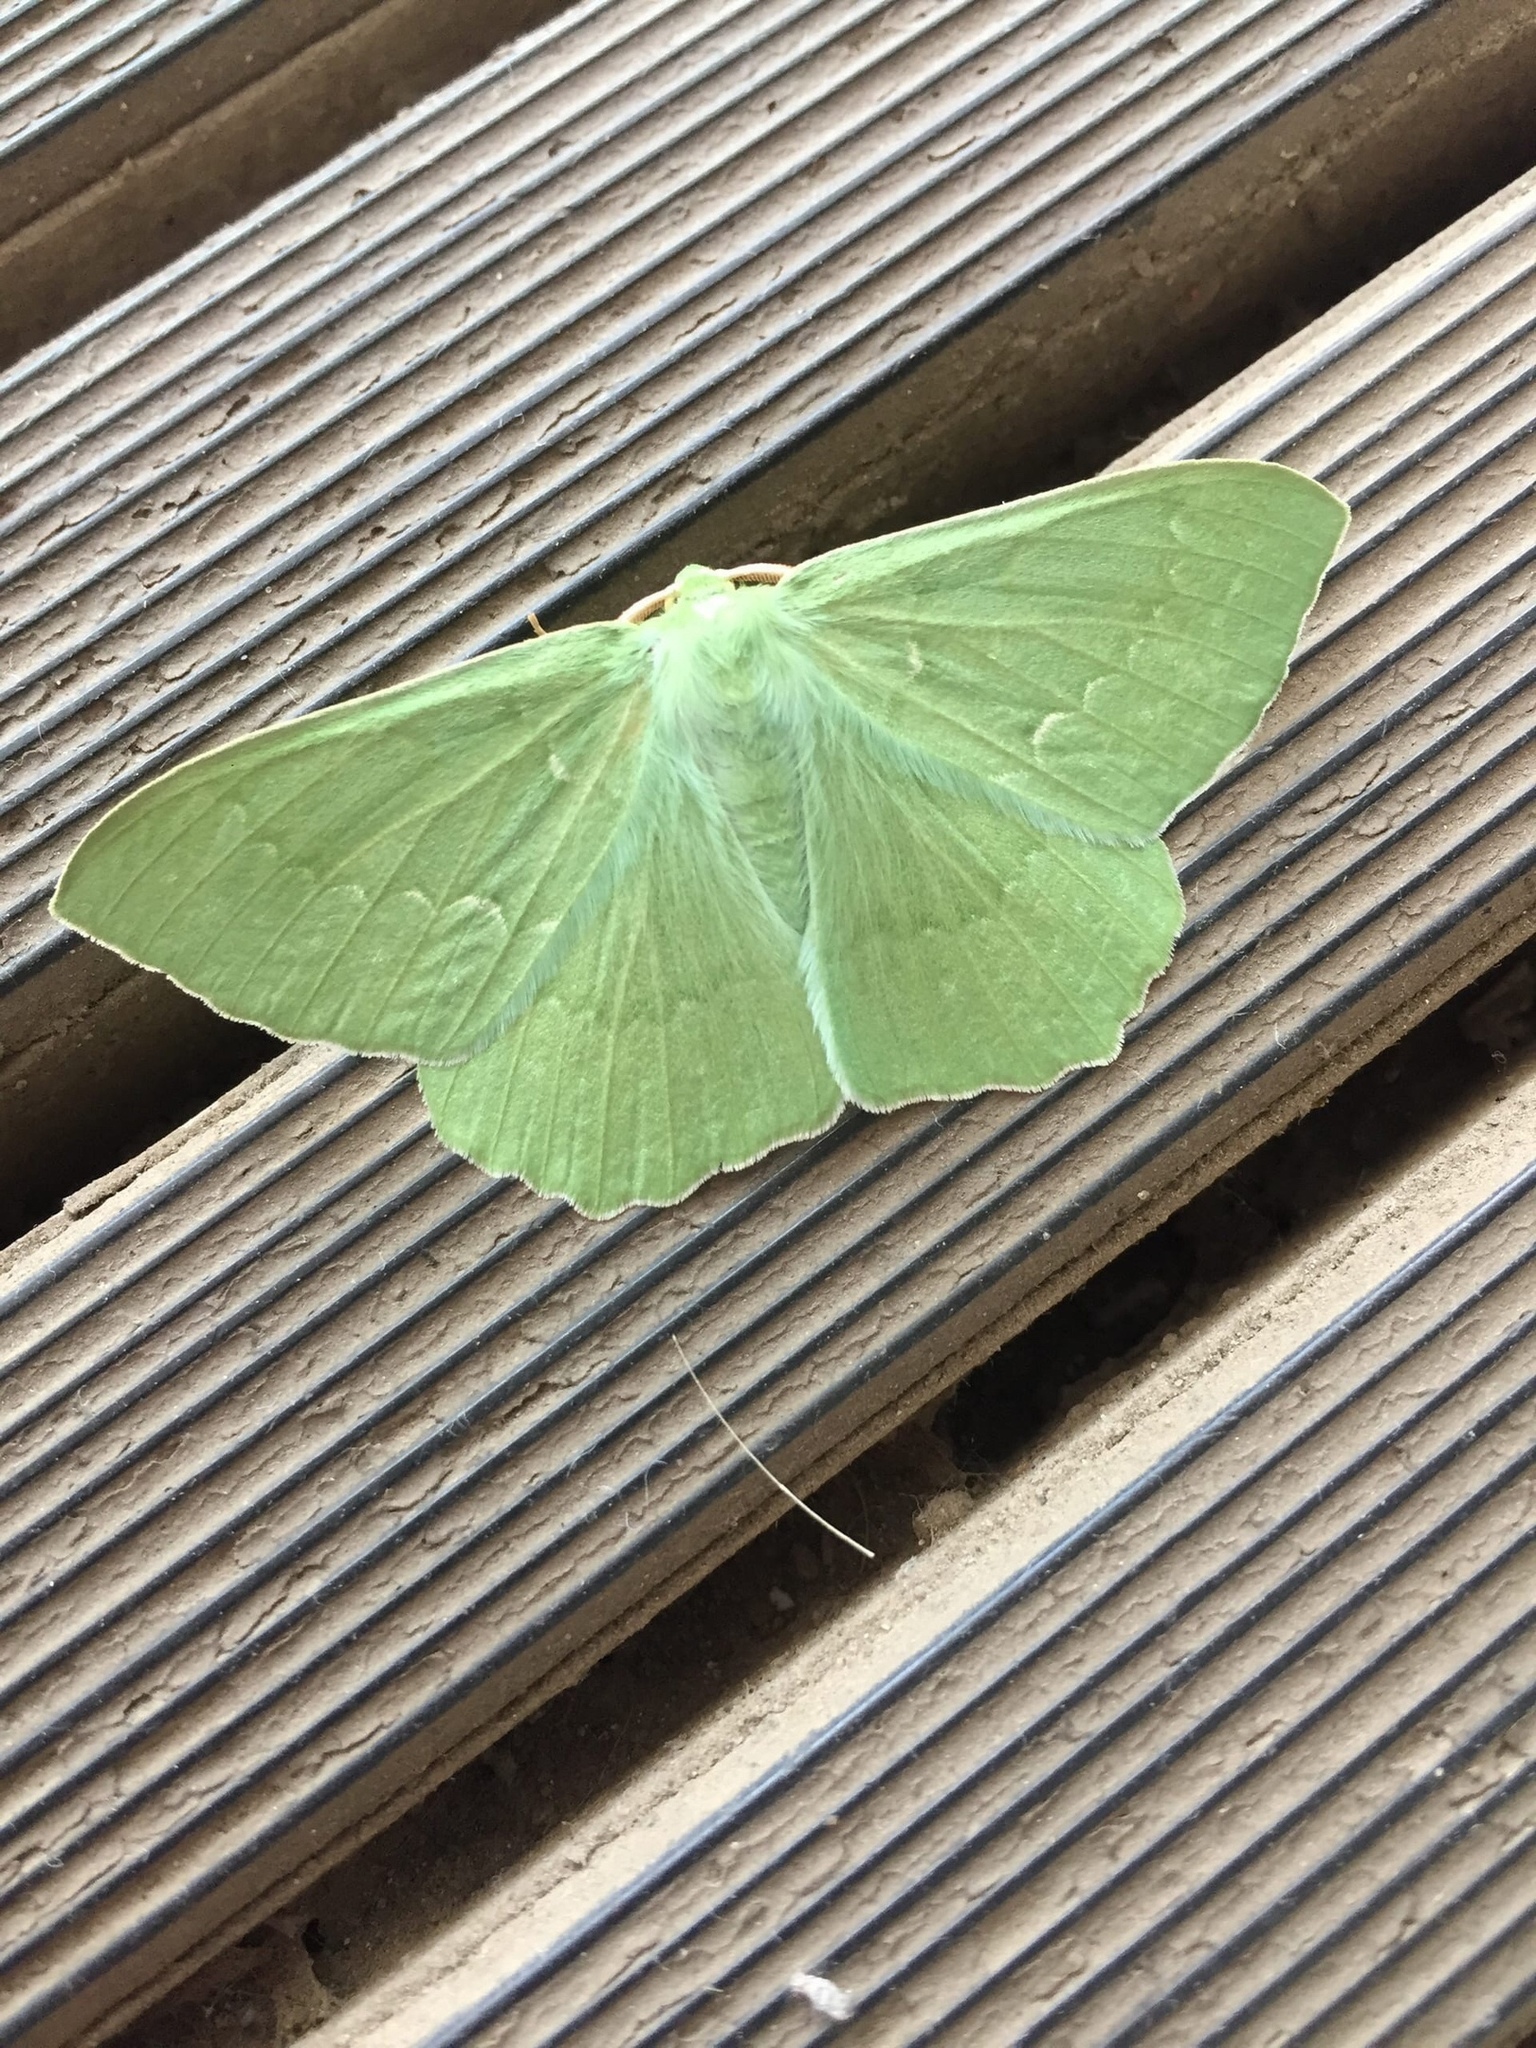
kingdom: Animalia
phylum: Arthropoda
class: Insecta
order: Lepidoptera
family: Geometridae
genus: Geometra
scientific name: Geometra papilionaria
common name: Large emerald
